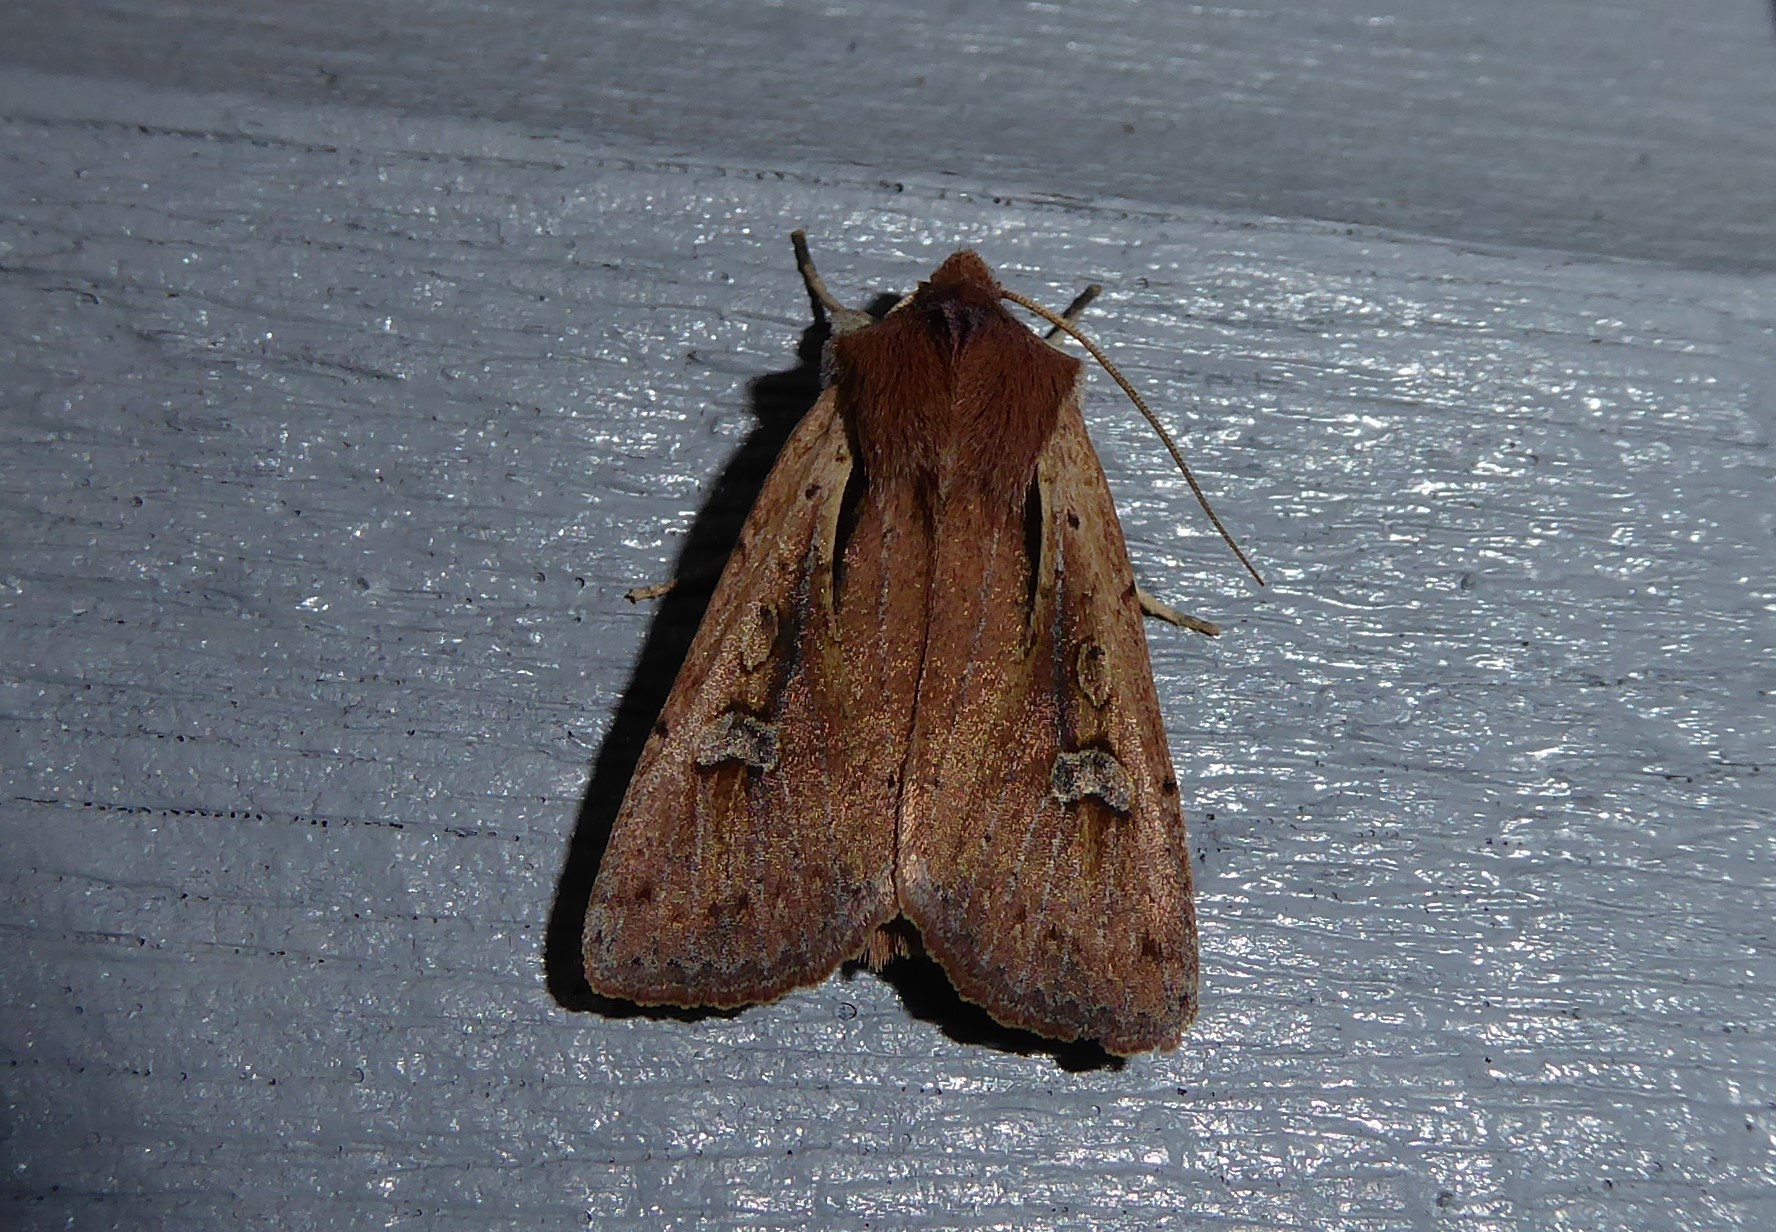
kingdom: Animalia
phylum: Arthropoda
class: Insecta
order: Lepidoptera
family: Noctuidae
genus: Ichneutica
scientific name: Ichneutica atristriga
